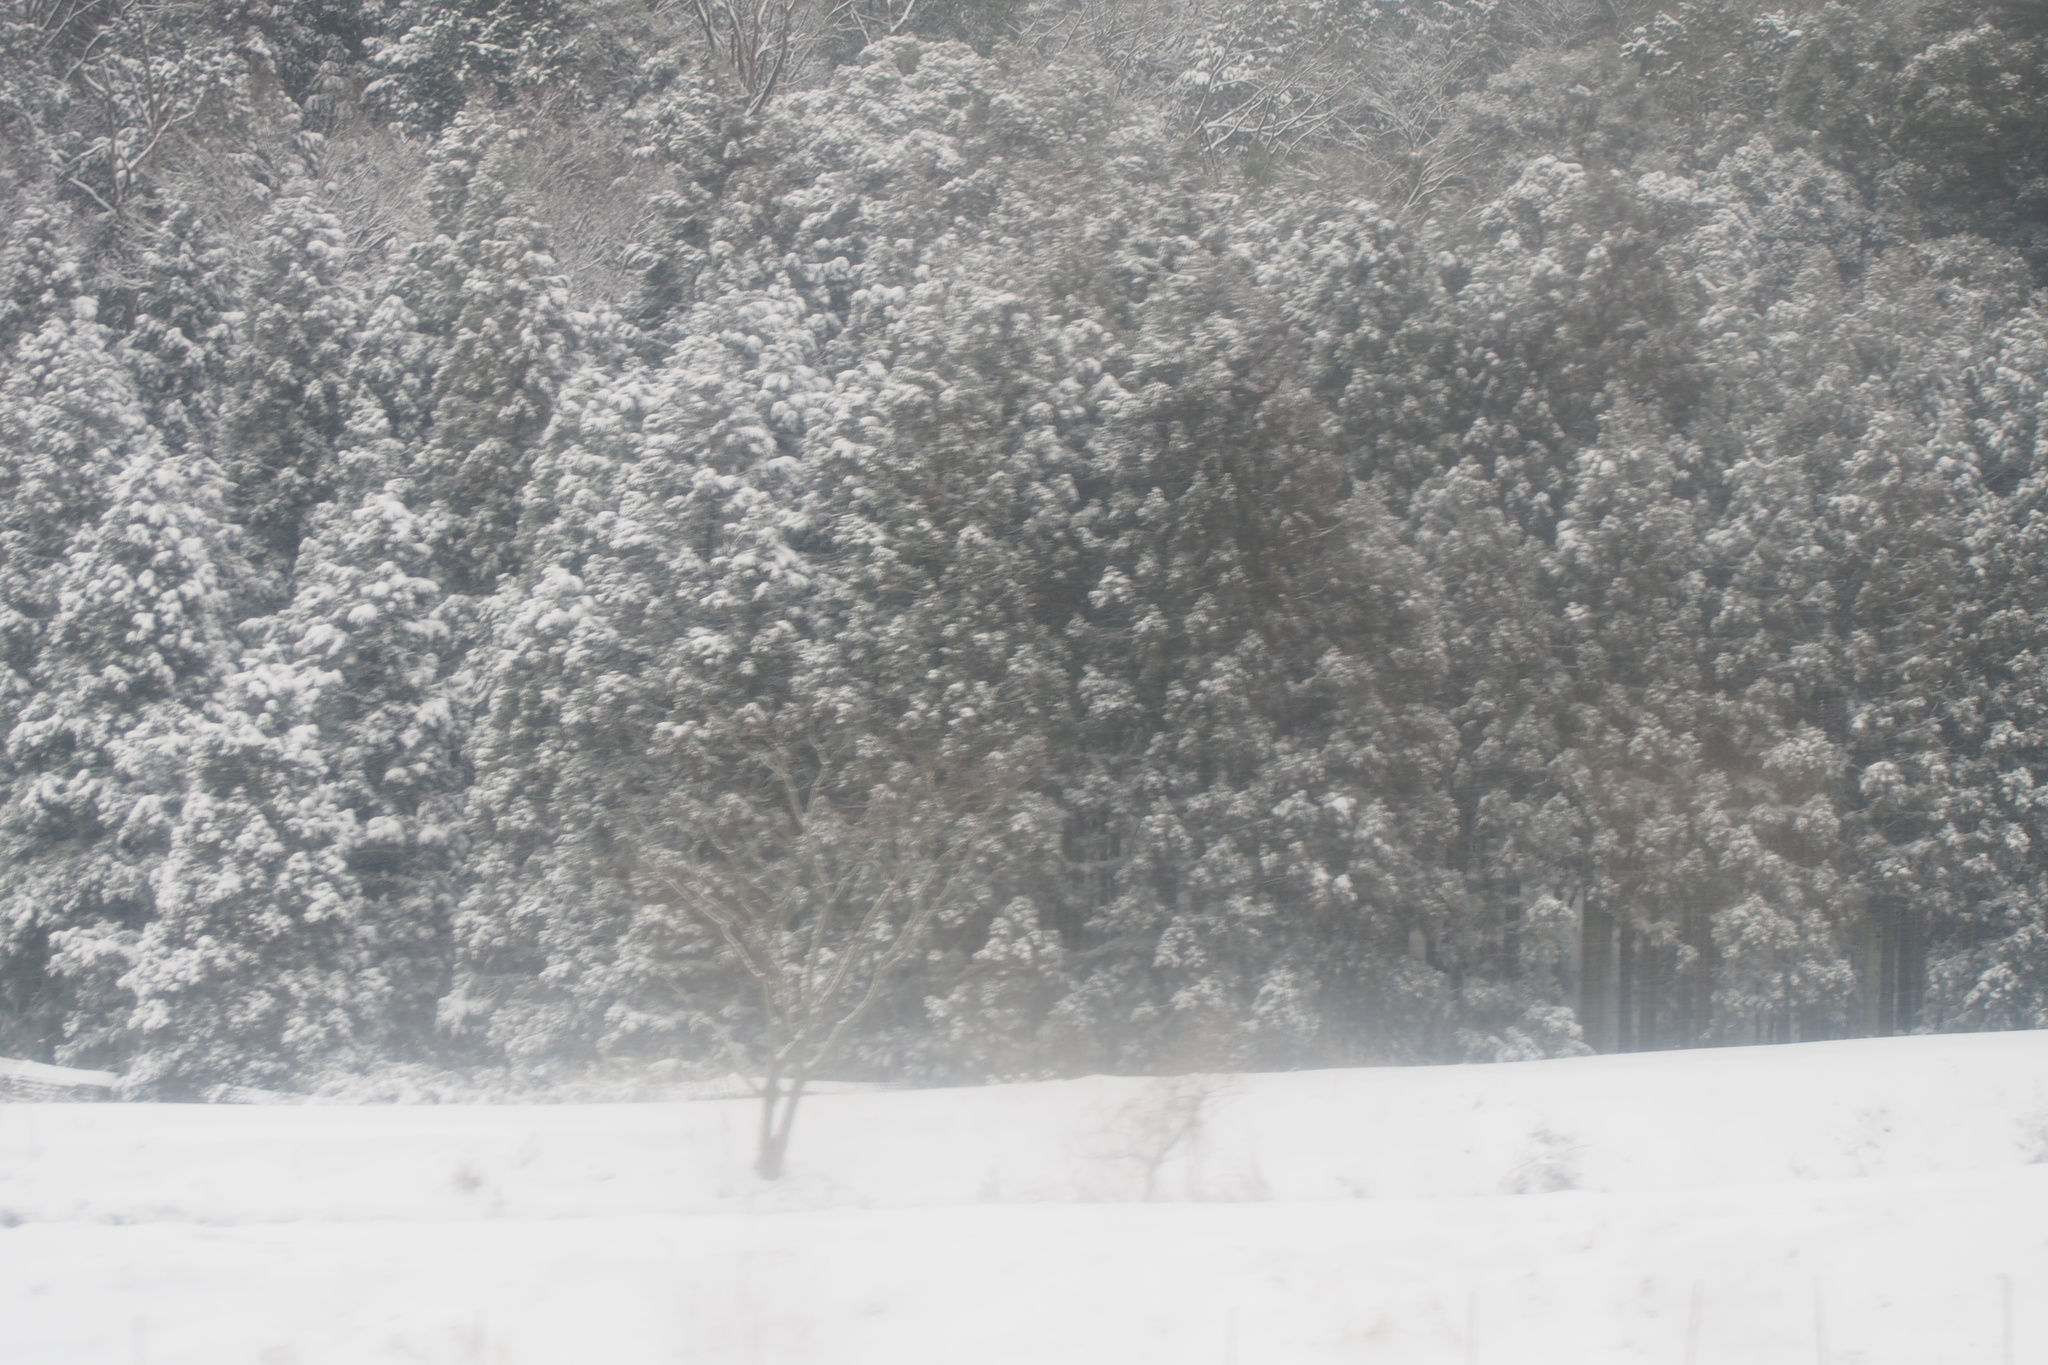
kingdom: Plantae
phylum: Tracheophyta
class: Pinopsida
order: Pinales
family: Cupressaceae
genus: Cryptomeria
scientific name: Cryptomeria japonica
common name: Japanese cedar
